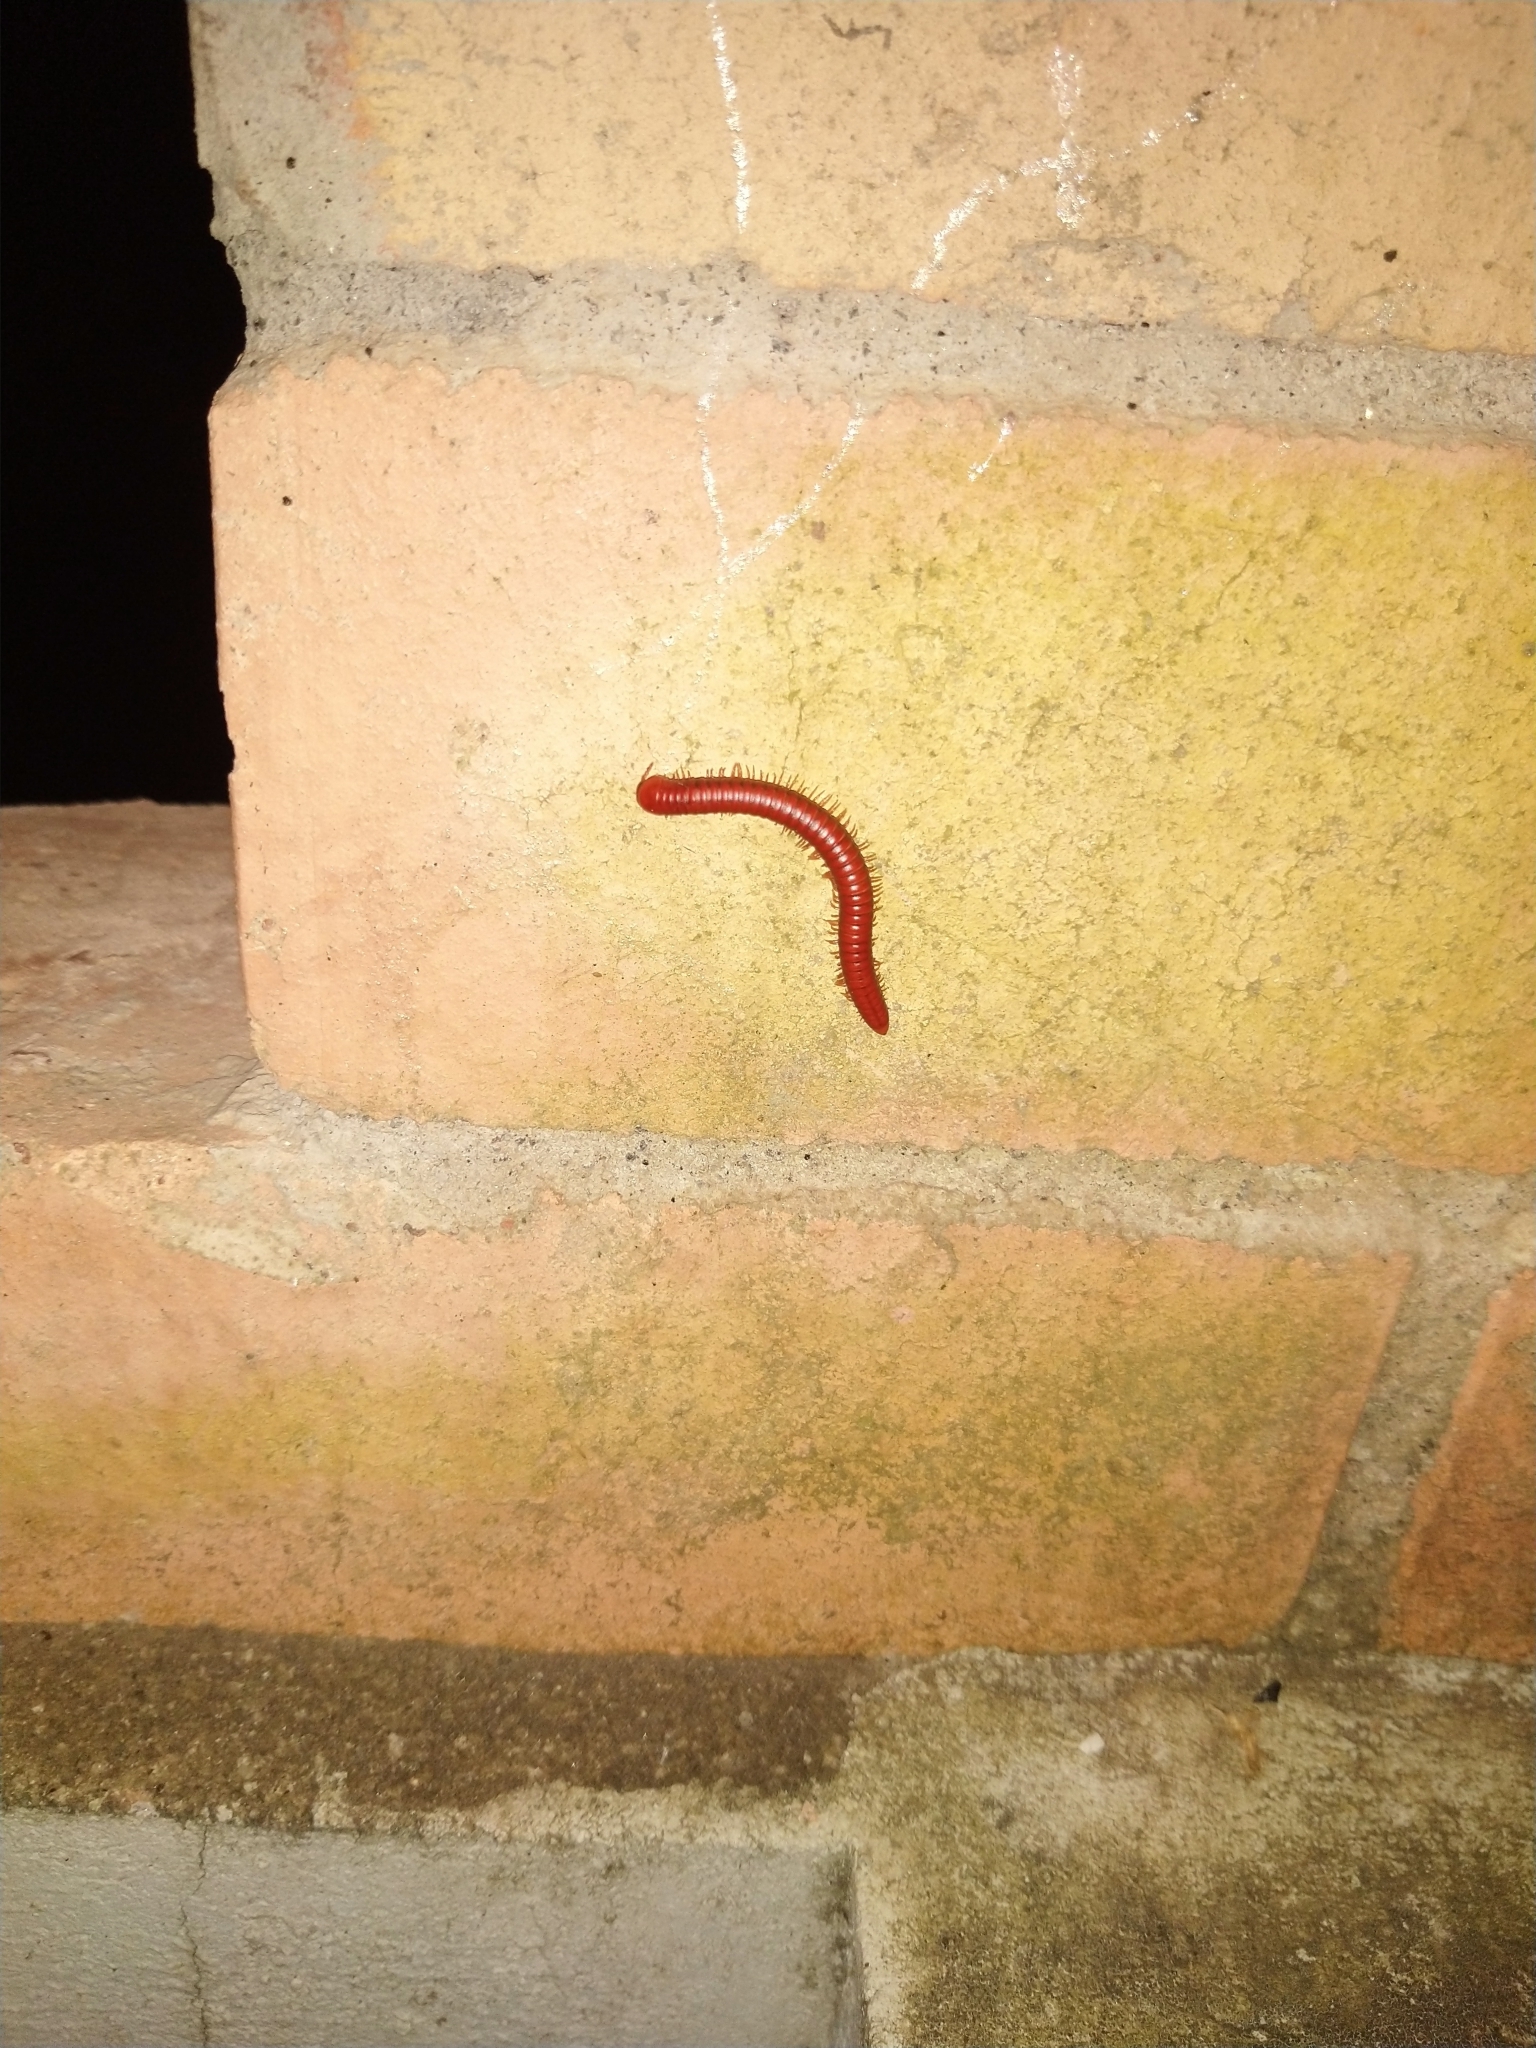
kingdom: Animalia
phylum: Arthropoda
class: Diplopoda
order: Spirobolida
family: Pachybolidae
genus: Trigoniulus
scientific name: Trigoniulus corallinus
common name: Millipede
